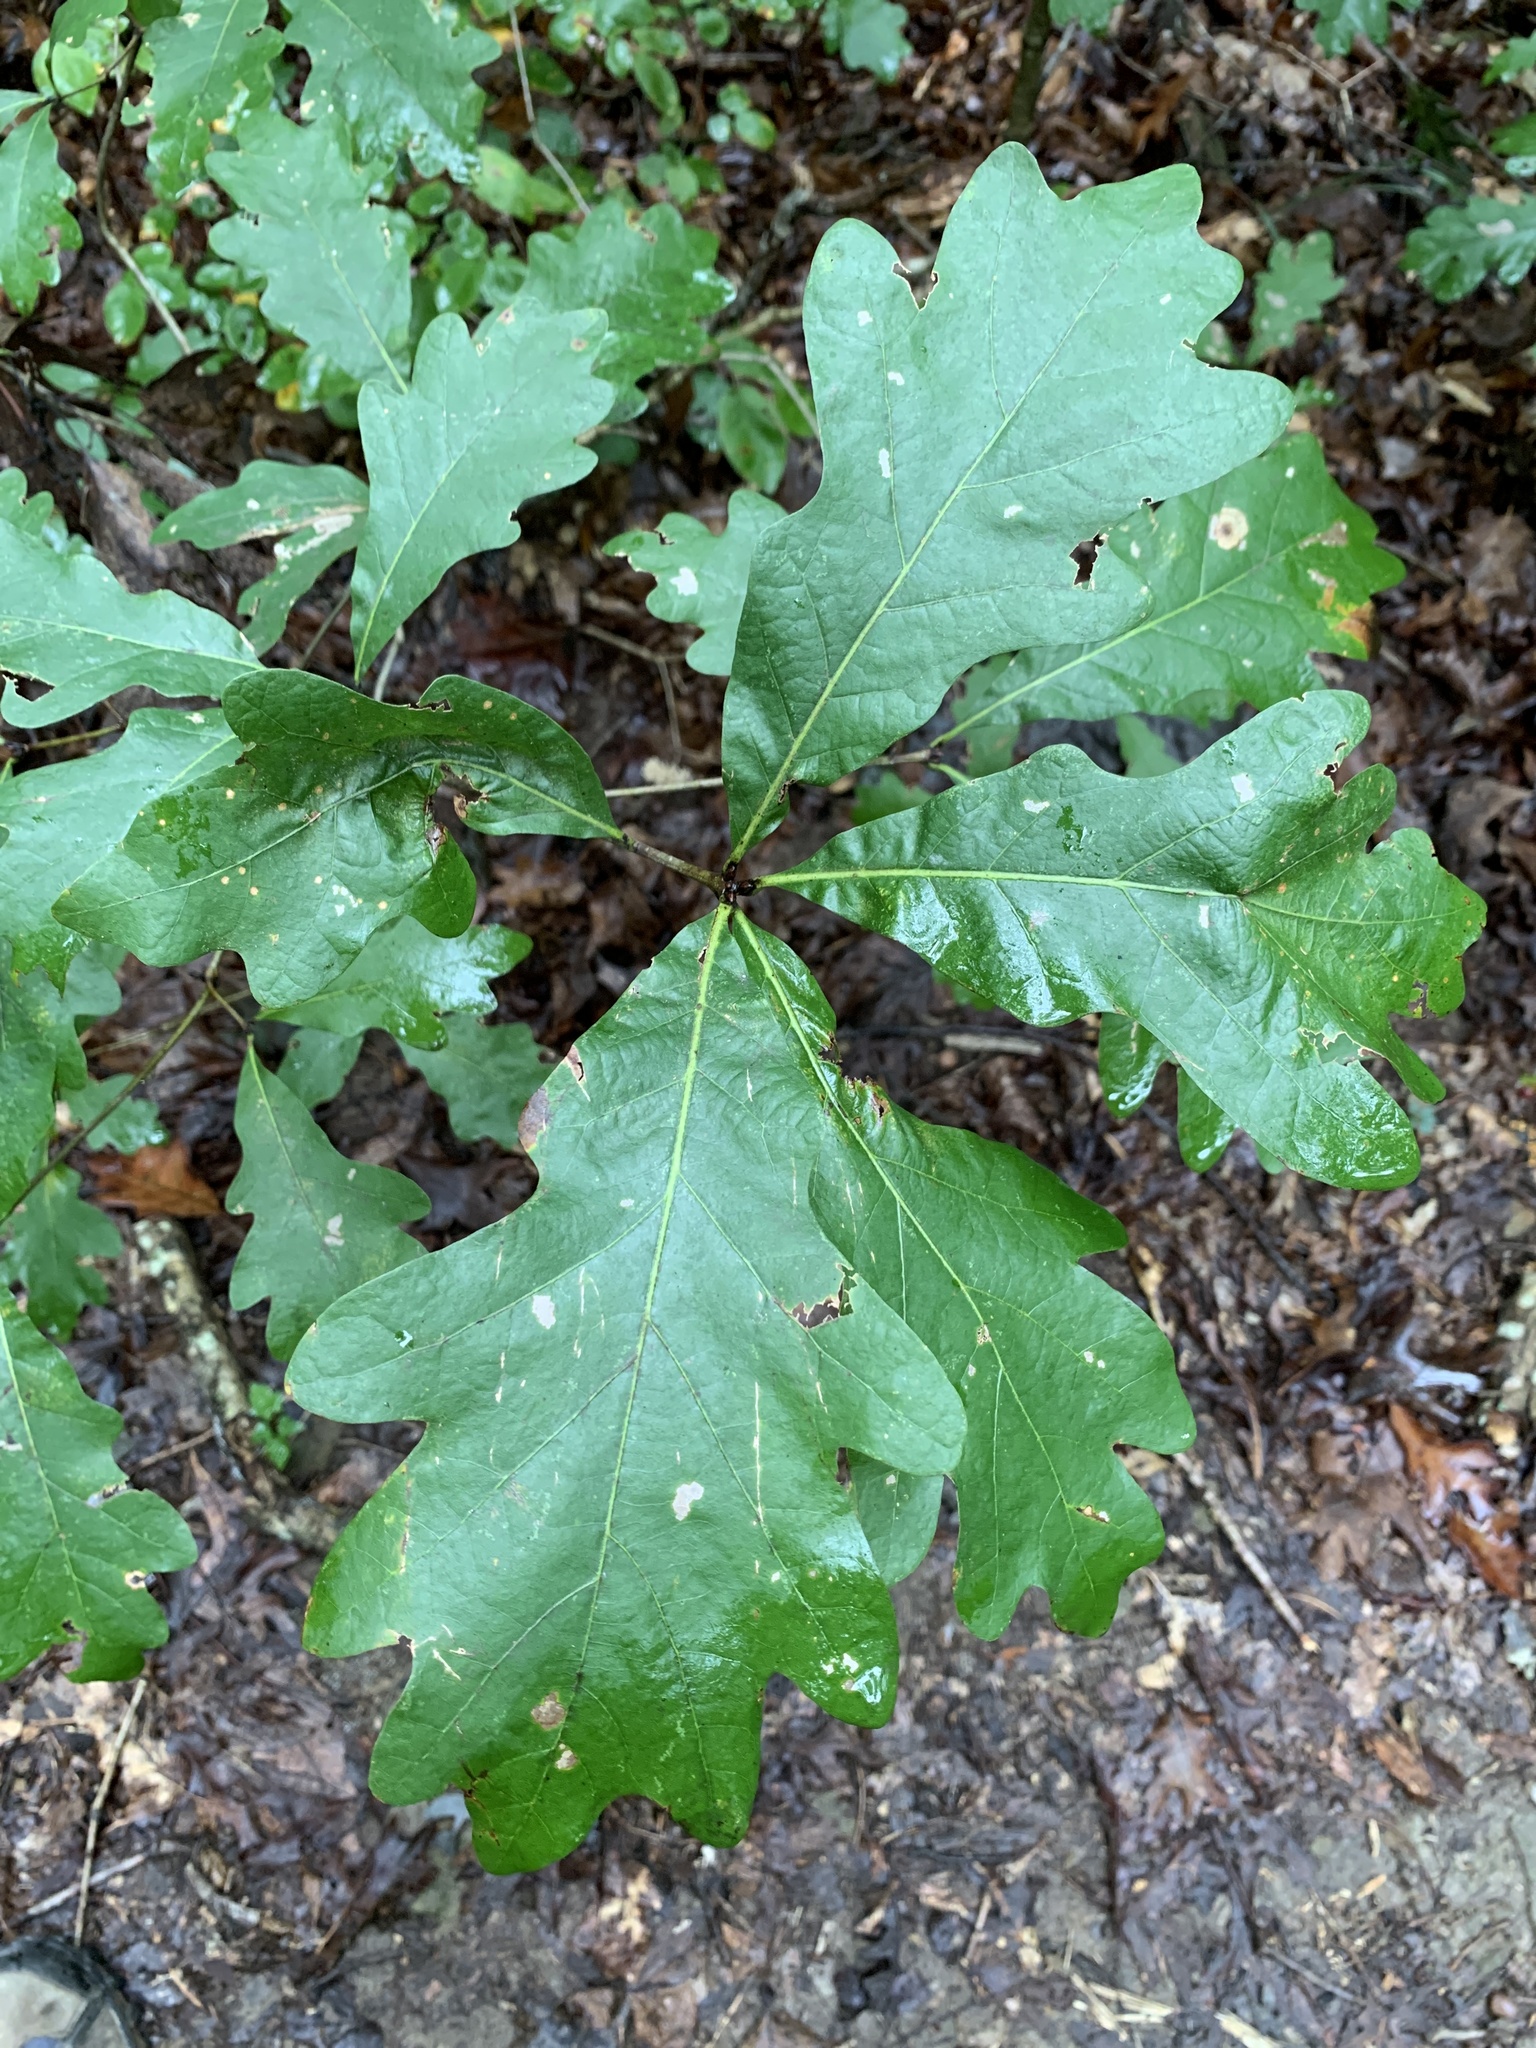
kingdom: Plantae
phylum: Tracheophyta
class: Magnoliopsida
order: Fagales
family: Fagaceae
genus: Quercus
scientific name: Quercus alba
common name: White oak
